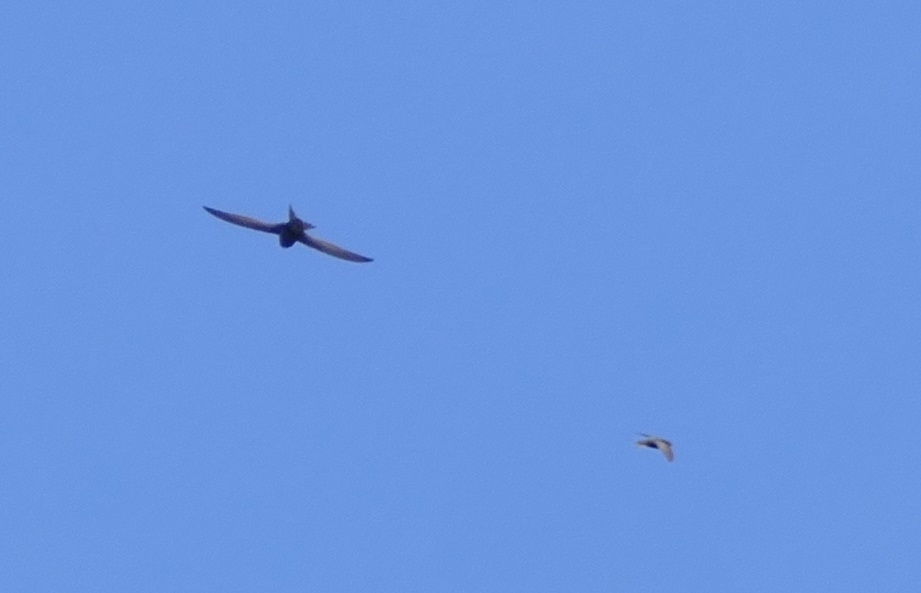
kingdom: Animalia
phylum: Chordata
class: Aves
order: Apodiformes
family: Apodidae
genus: Apus
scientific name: Apus apus
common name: Common swift
